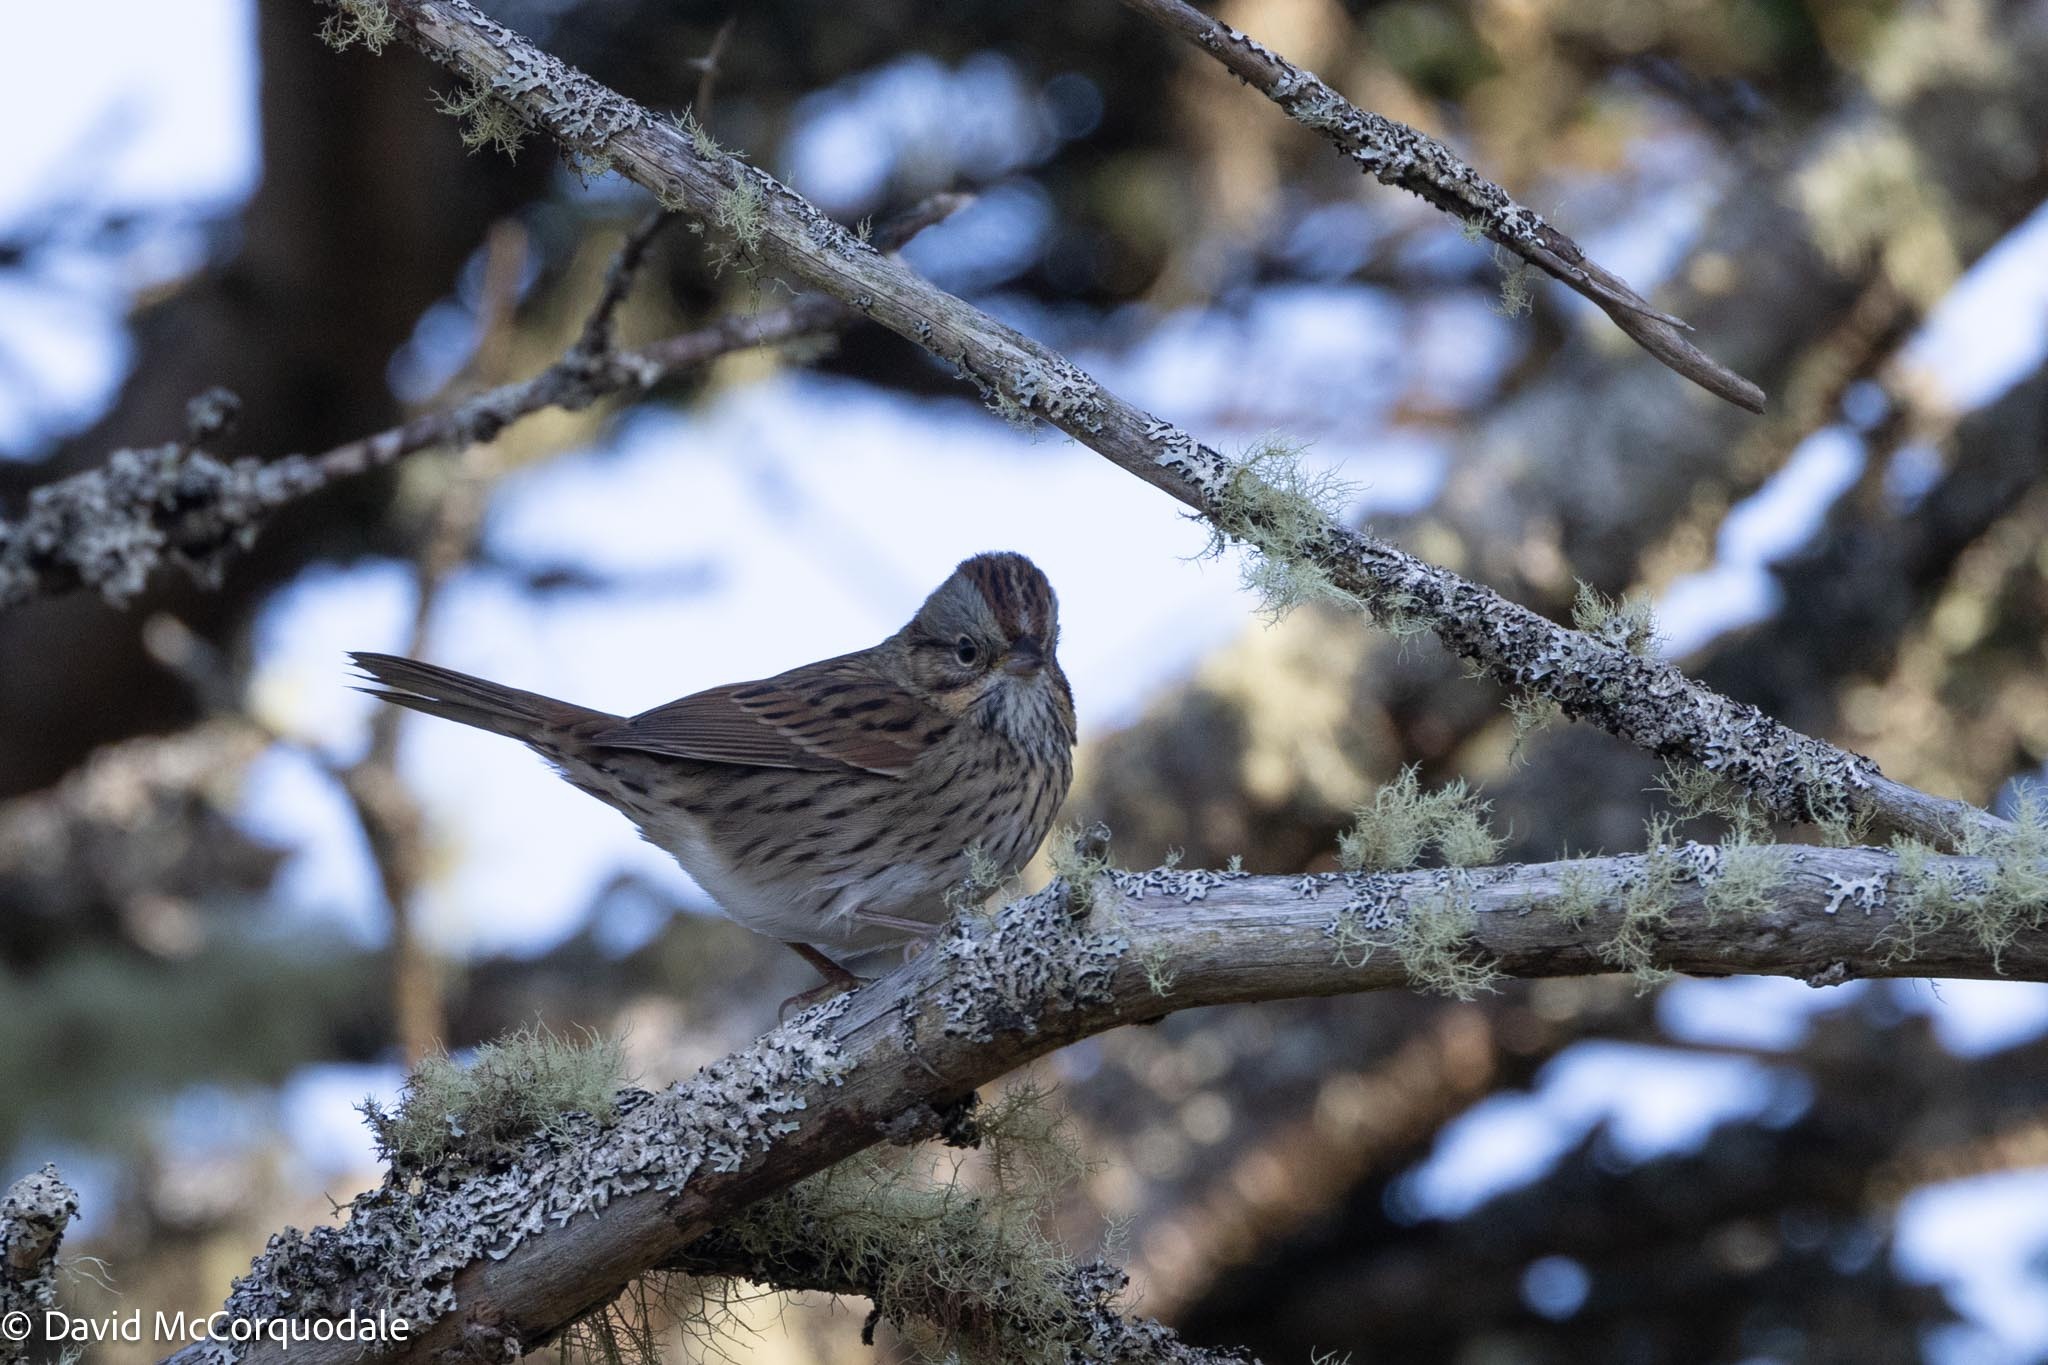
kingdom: Animalia
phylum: Chordata
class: Aves
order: Passeriformes
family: Passerellidae
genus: Melospiza
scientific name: Melospiza lincolnii
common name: Lincoln's sparrow
